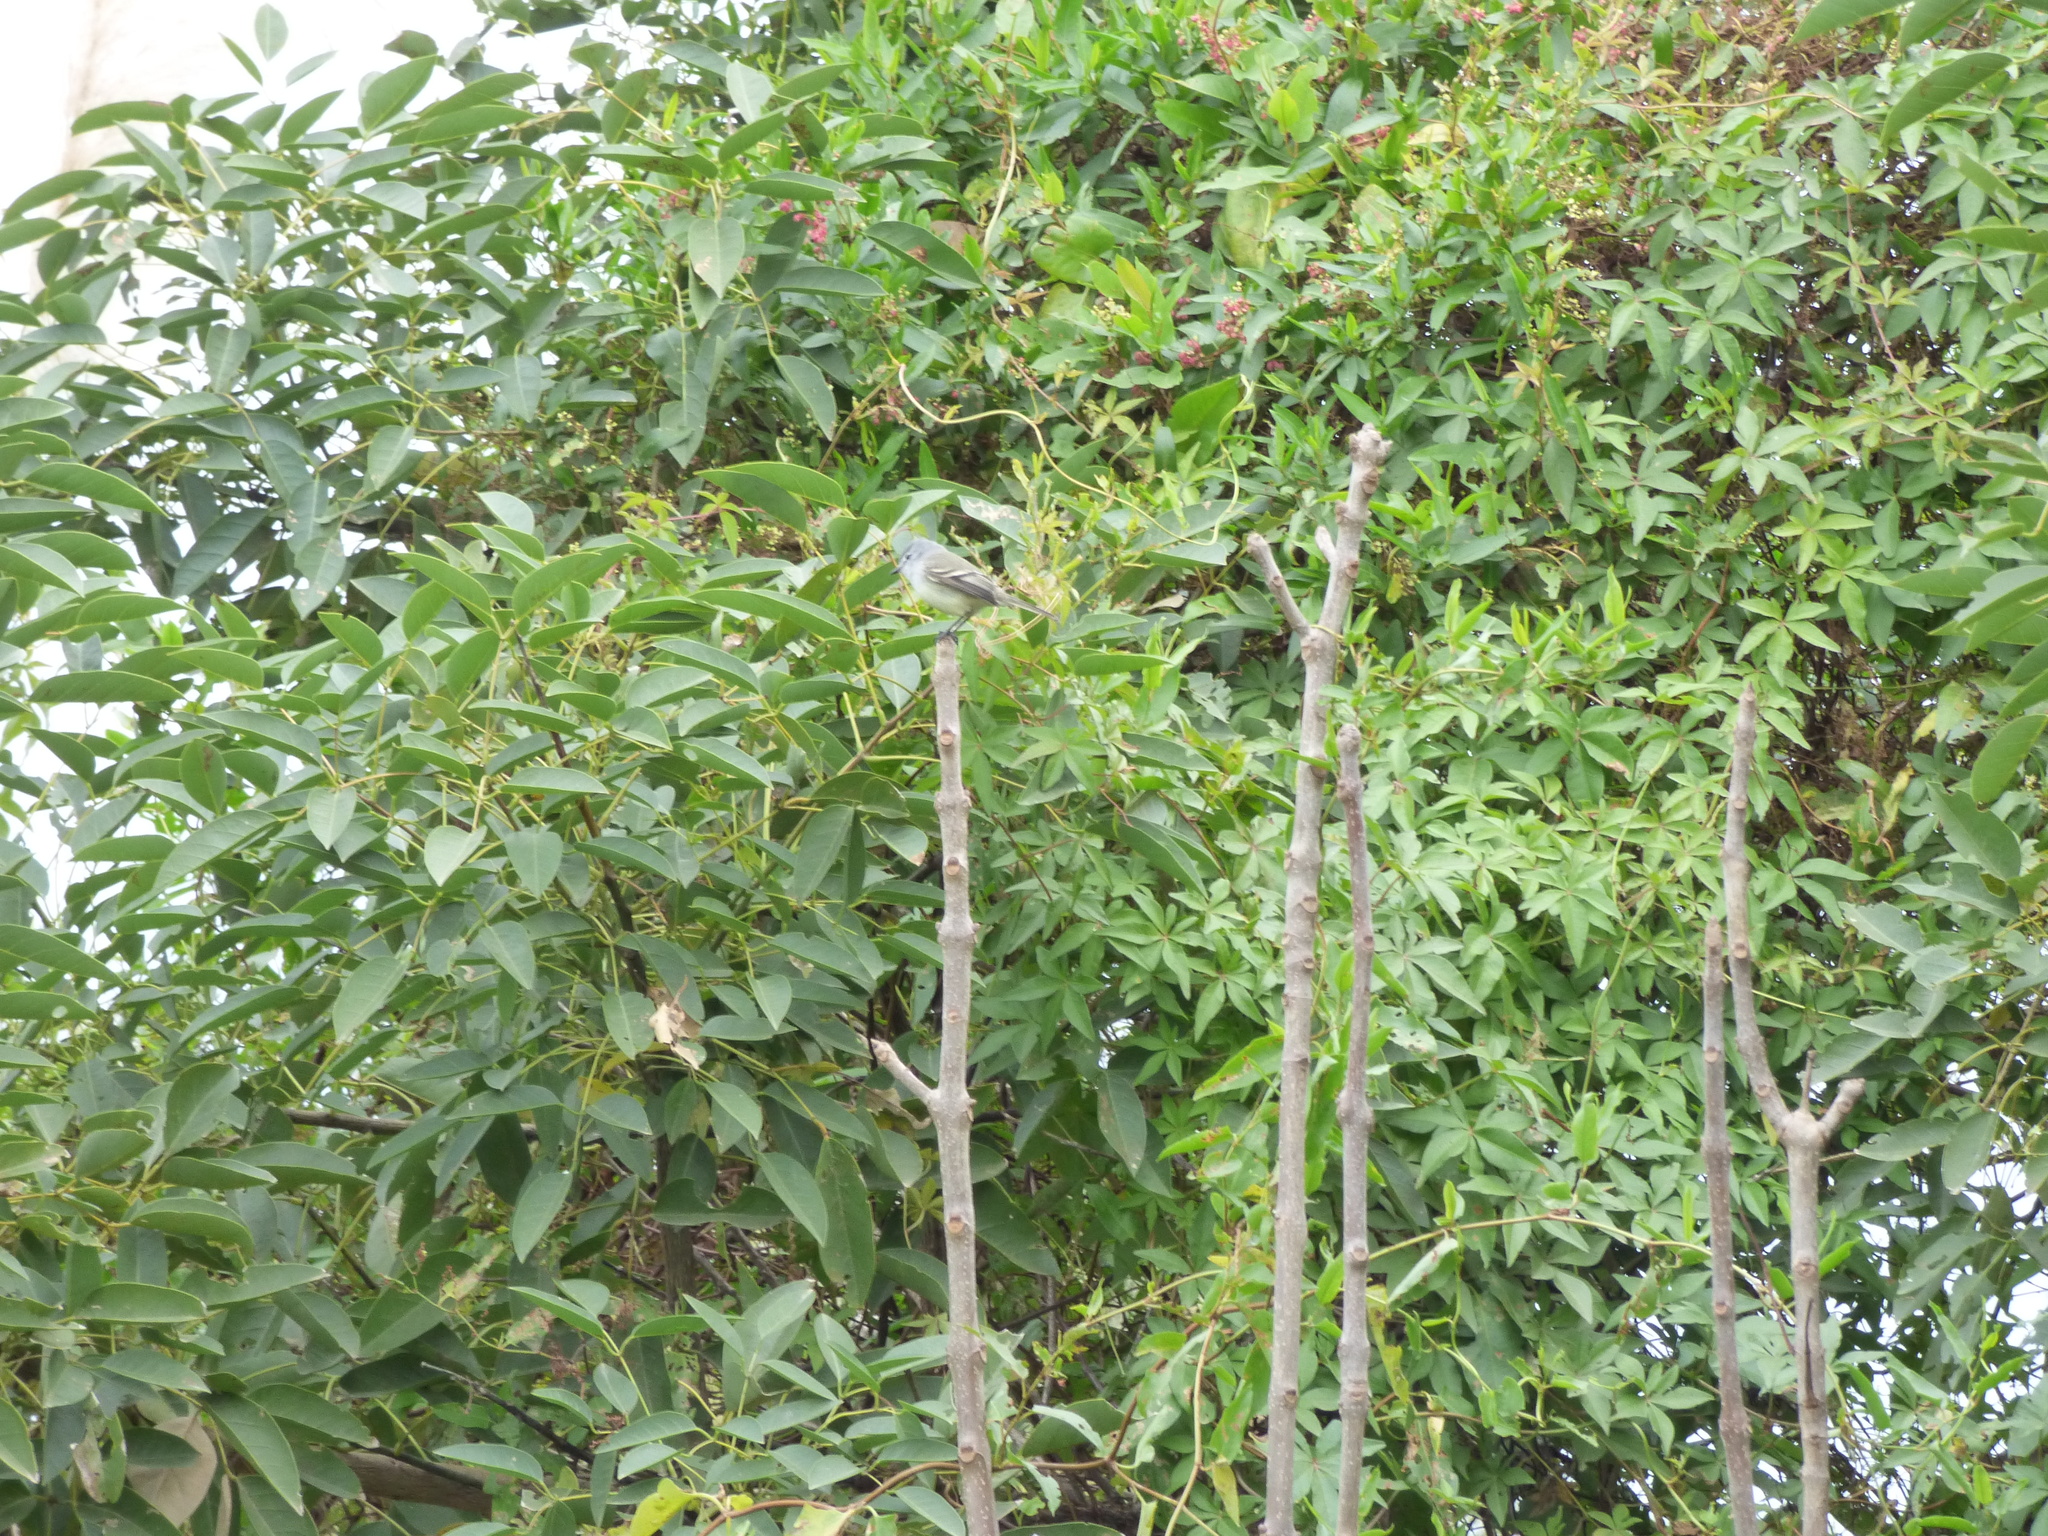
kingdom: Animalia
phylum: Chordata
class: Aves
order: Passeriformes
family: Tyrannidae
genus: Serpophaga
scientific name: Serpophaga subcristata
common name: White-crested tyrannulet
